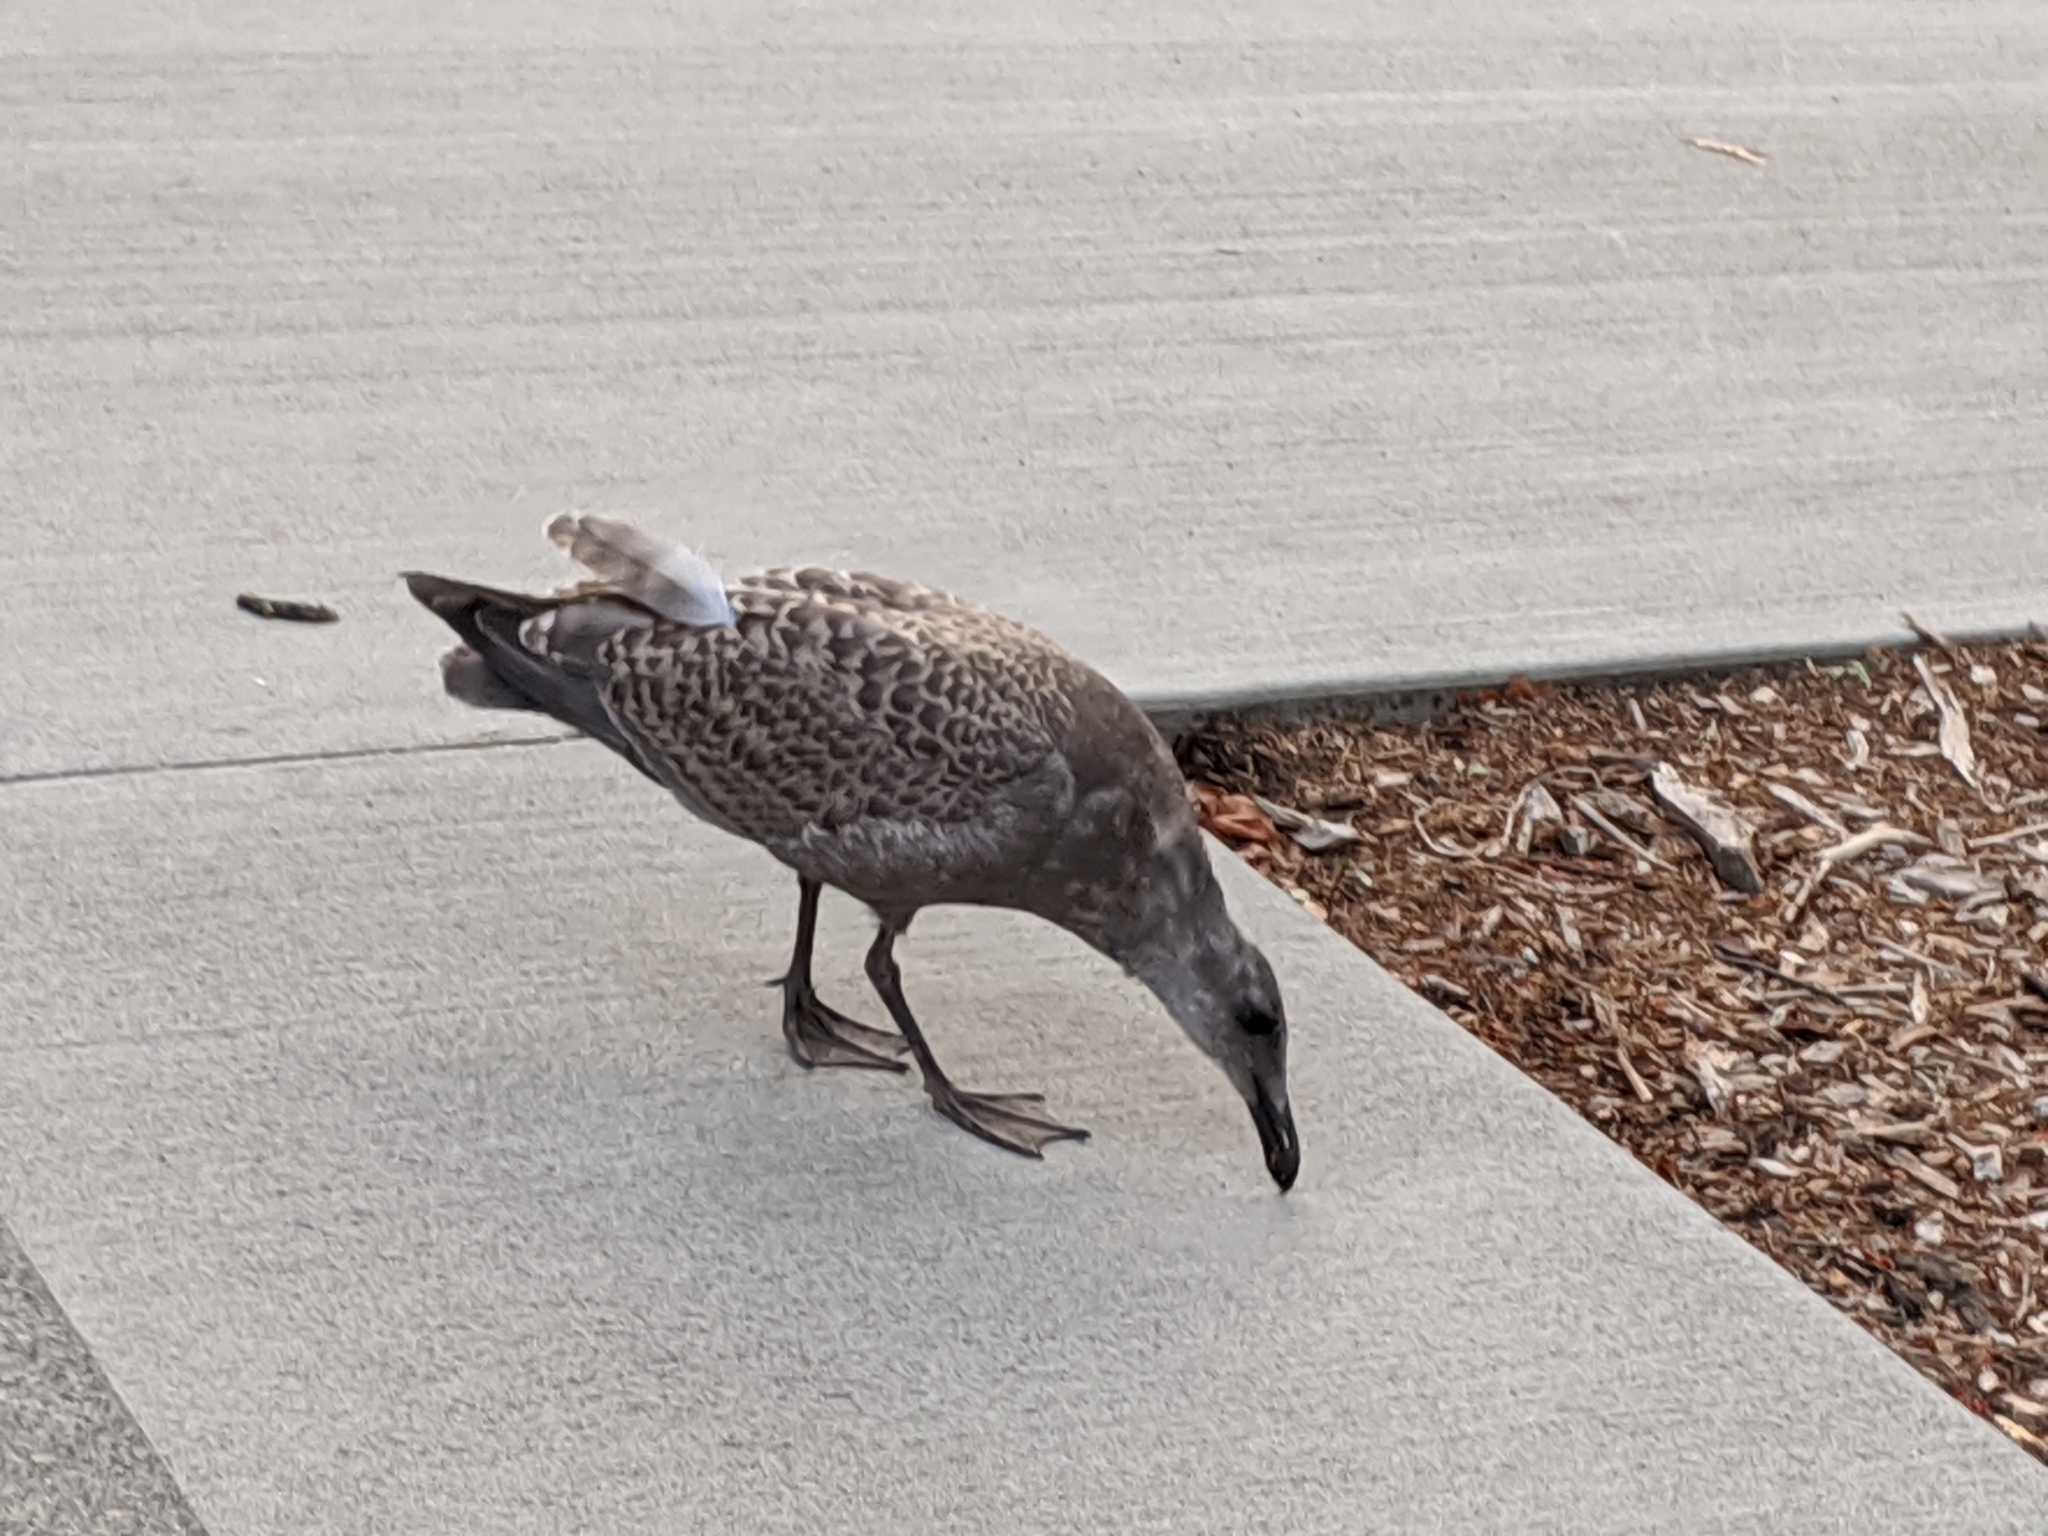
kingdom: Animalia
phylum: Chordata
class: Aves
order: Charadriiformes
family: Laridae
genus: Larus
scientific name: Larus
